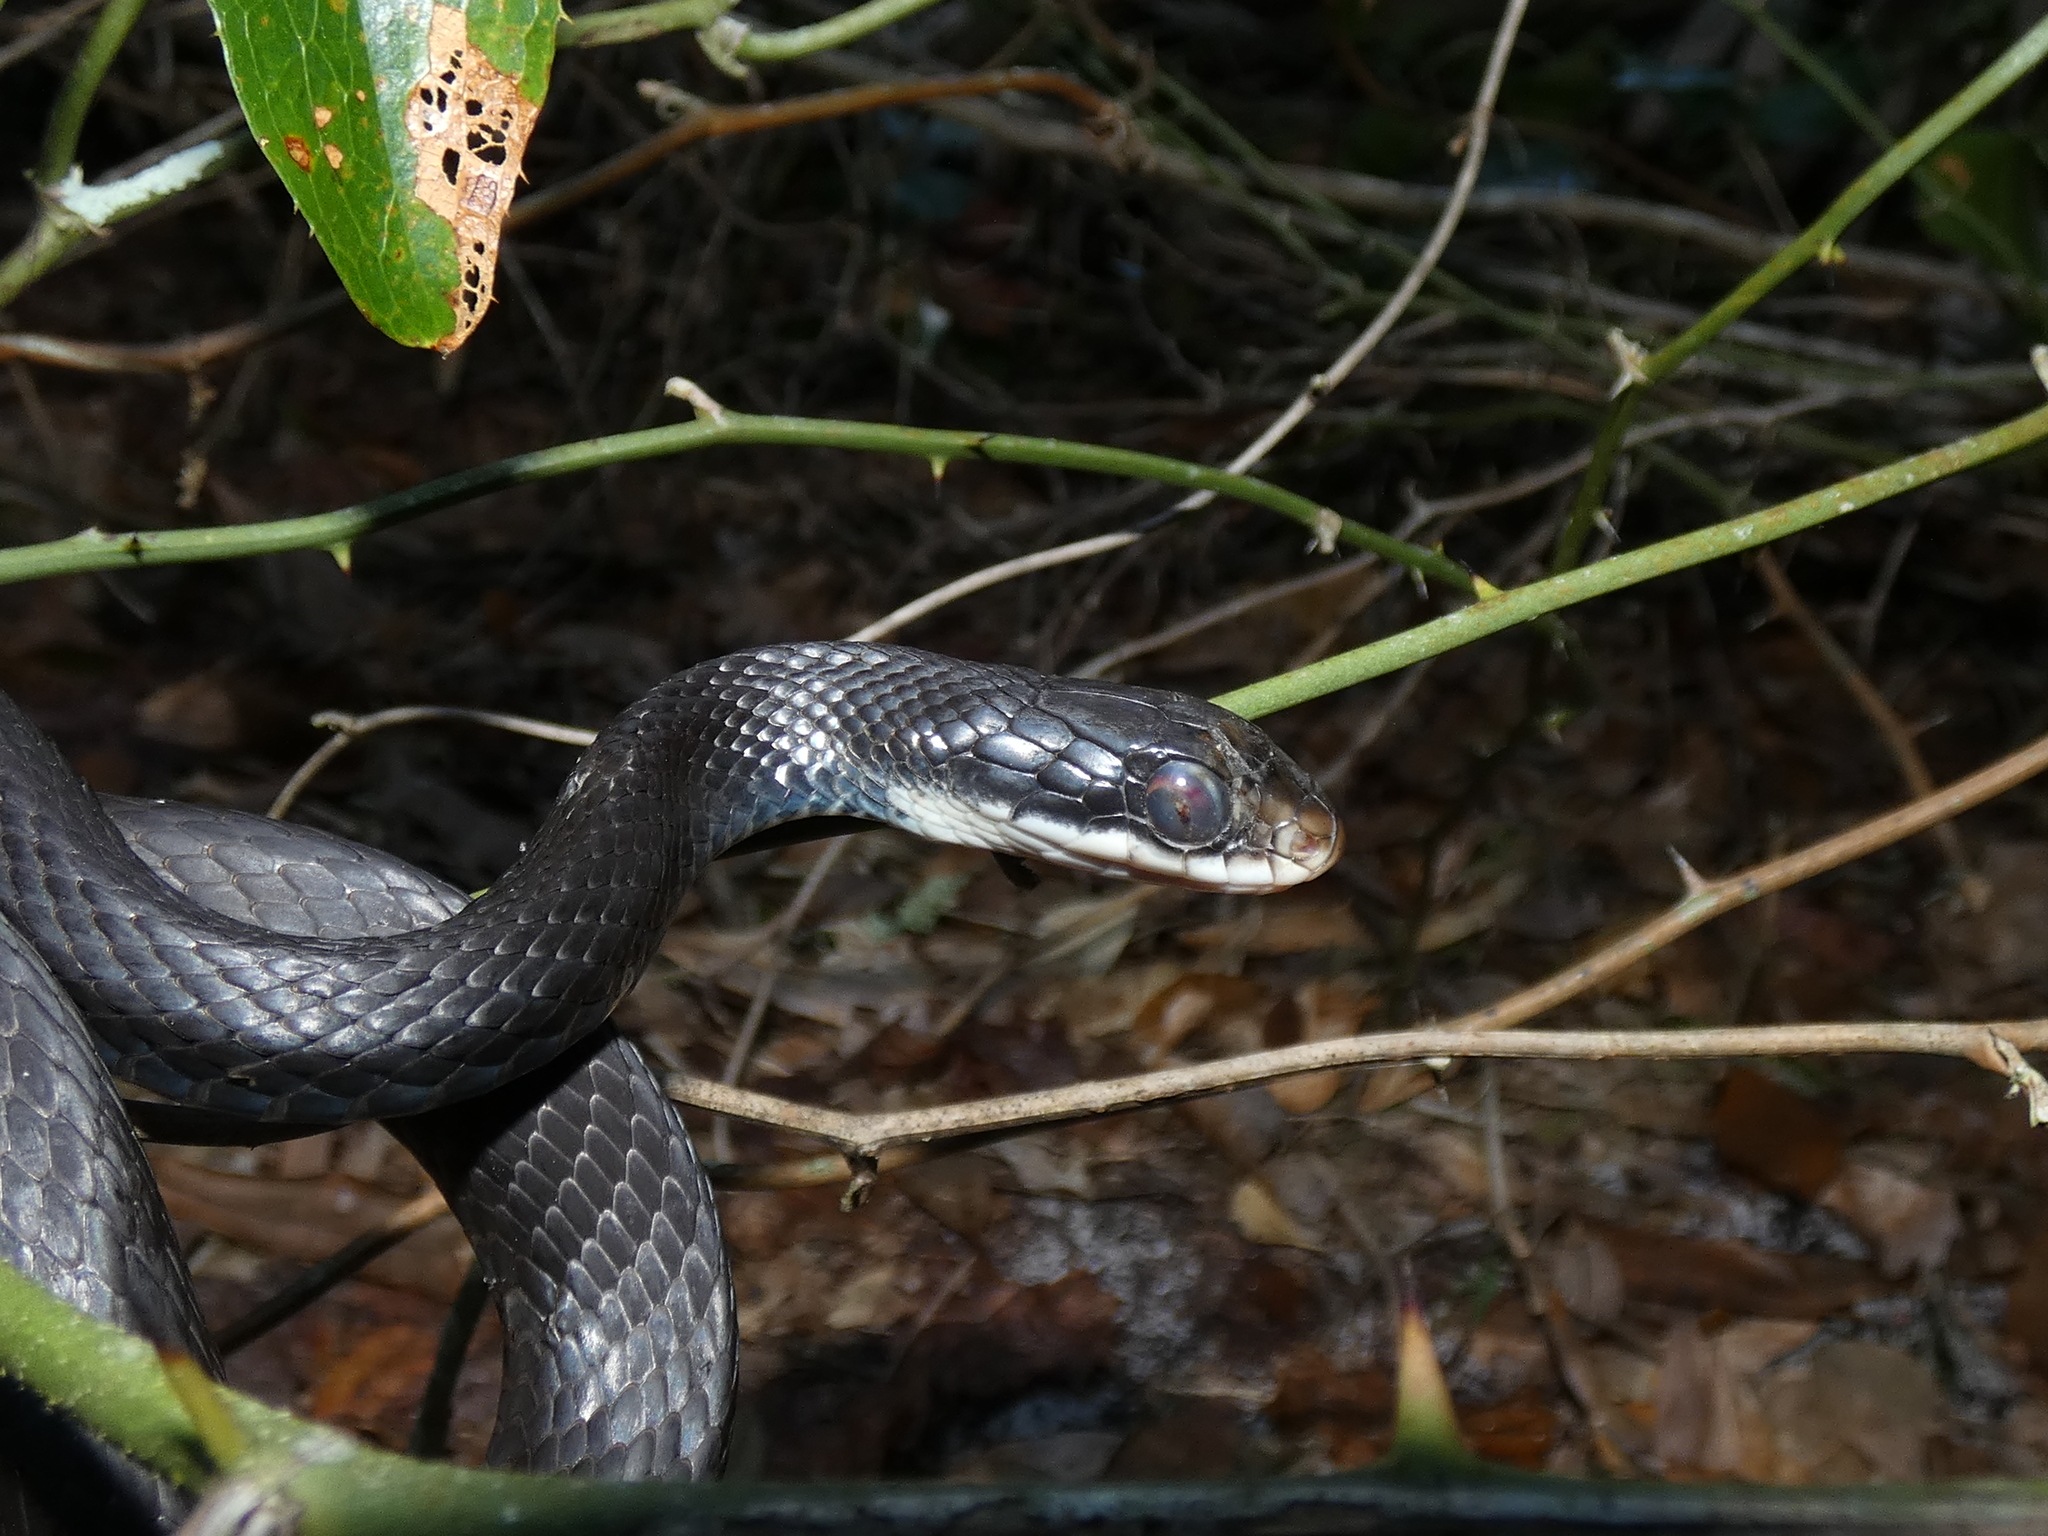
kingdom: Animalia
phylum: Chordata
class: Squamata
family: Colubridae
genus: Coluber
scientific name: Coluber constrictor
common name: Eastern racer
